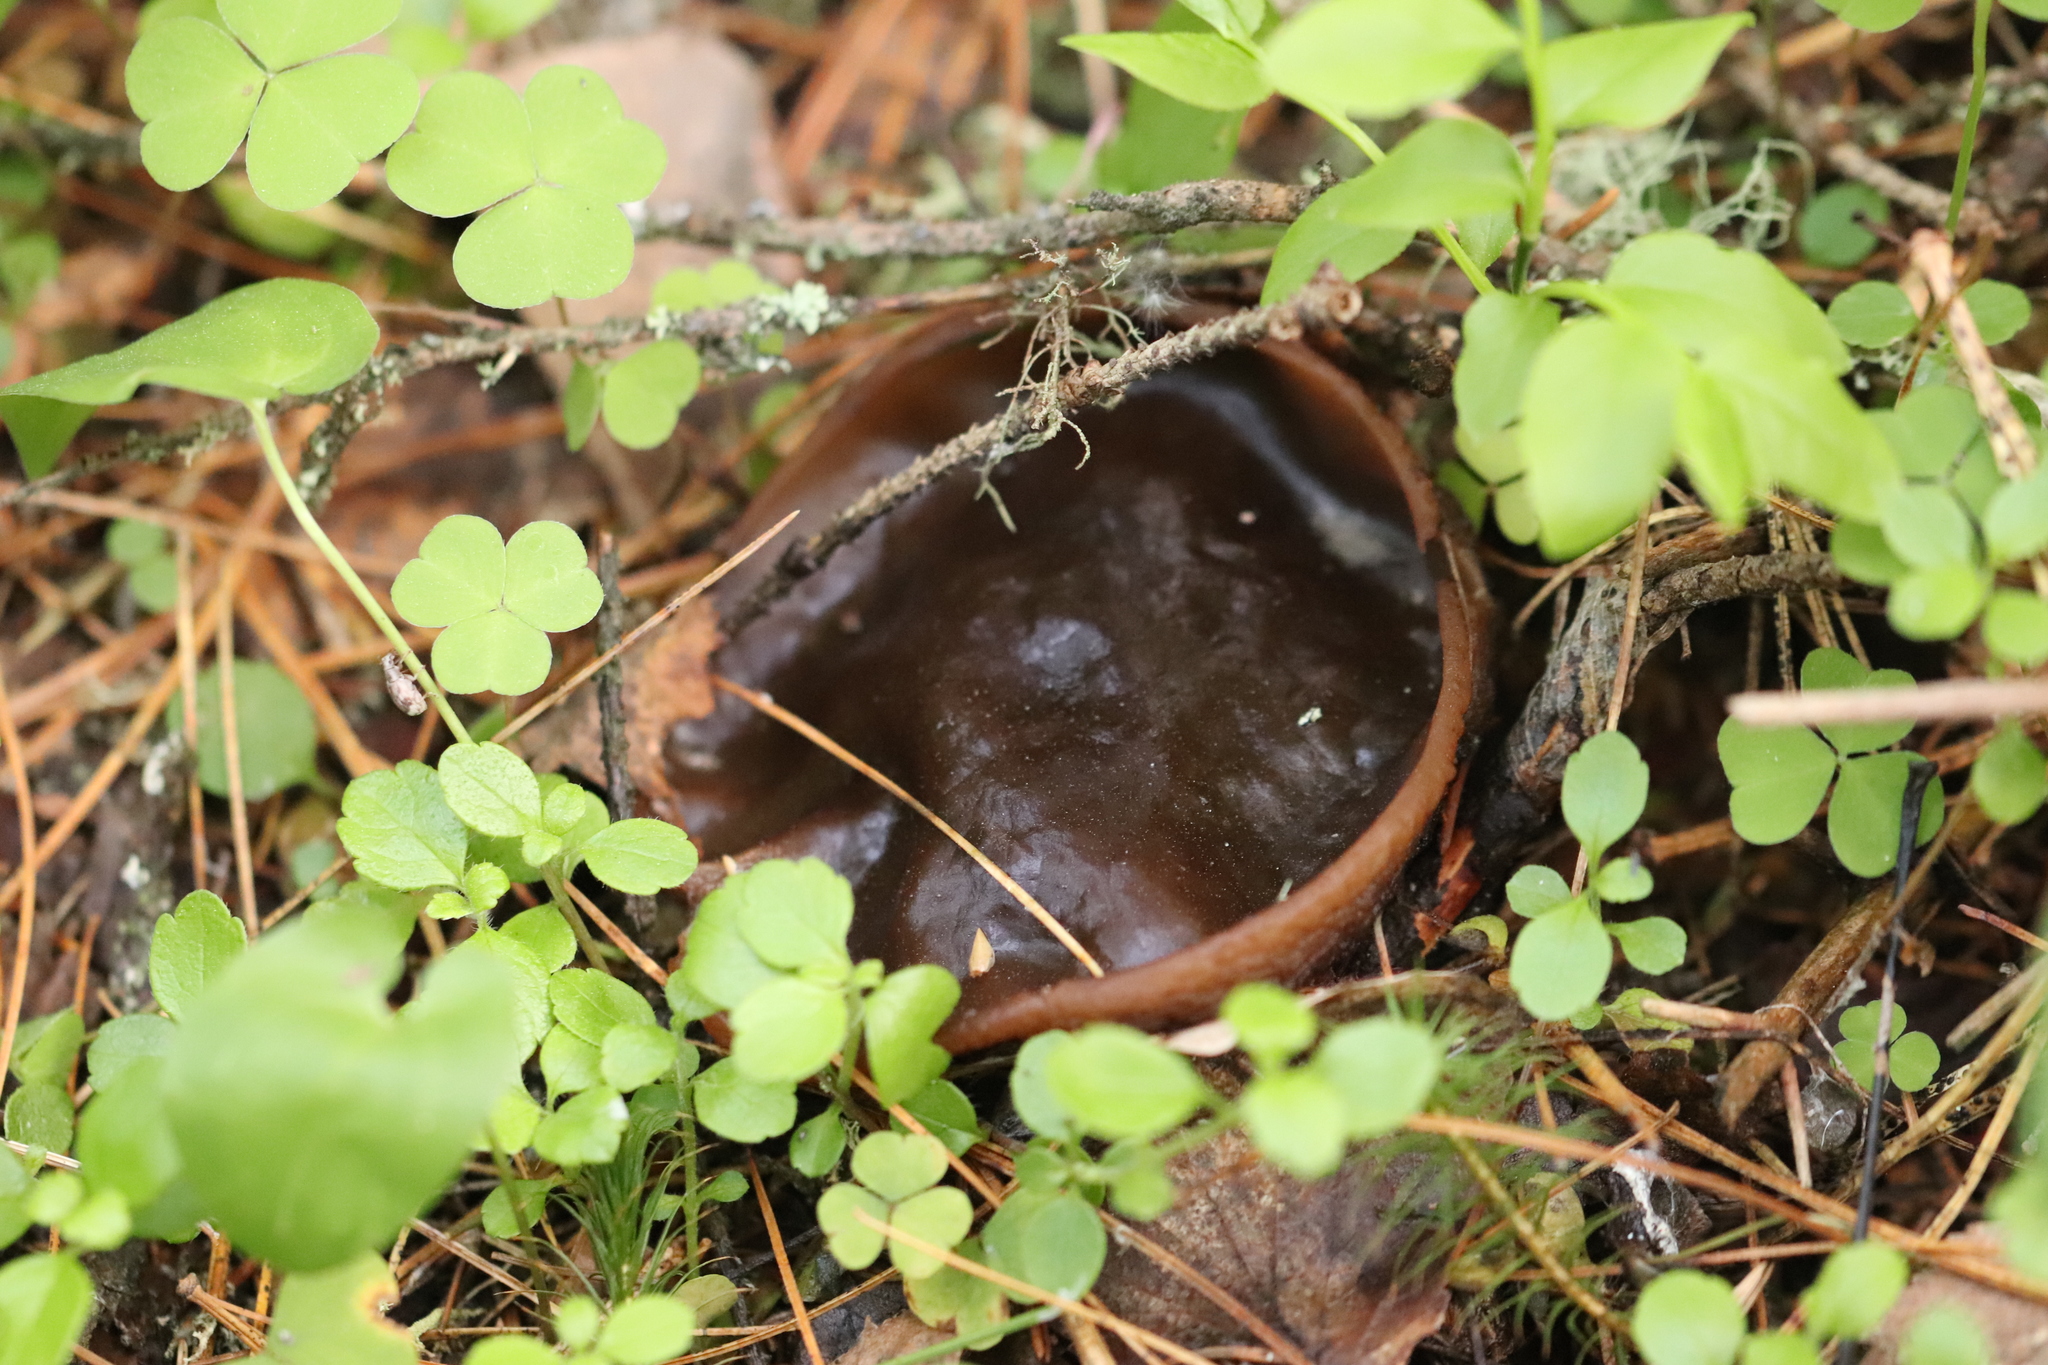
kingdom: Fungi
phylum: Ascomycota
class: Pezizomycetes
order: Pezizales
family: Sarcosomataceae
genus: Sarcosoma
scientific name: Sarcosoma globosum
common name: Charred-pancake cup
